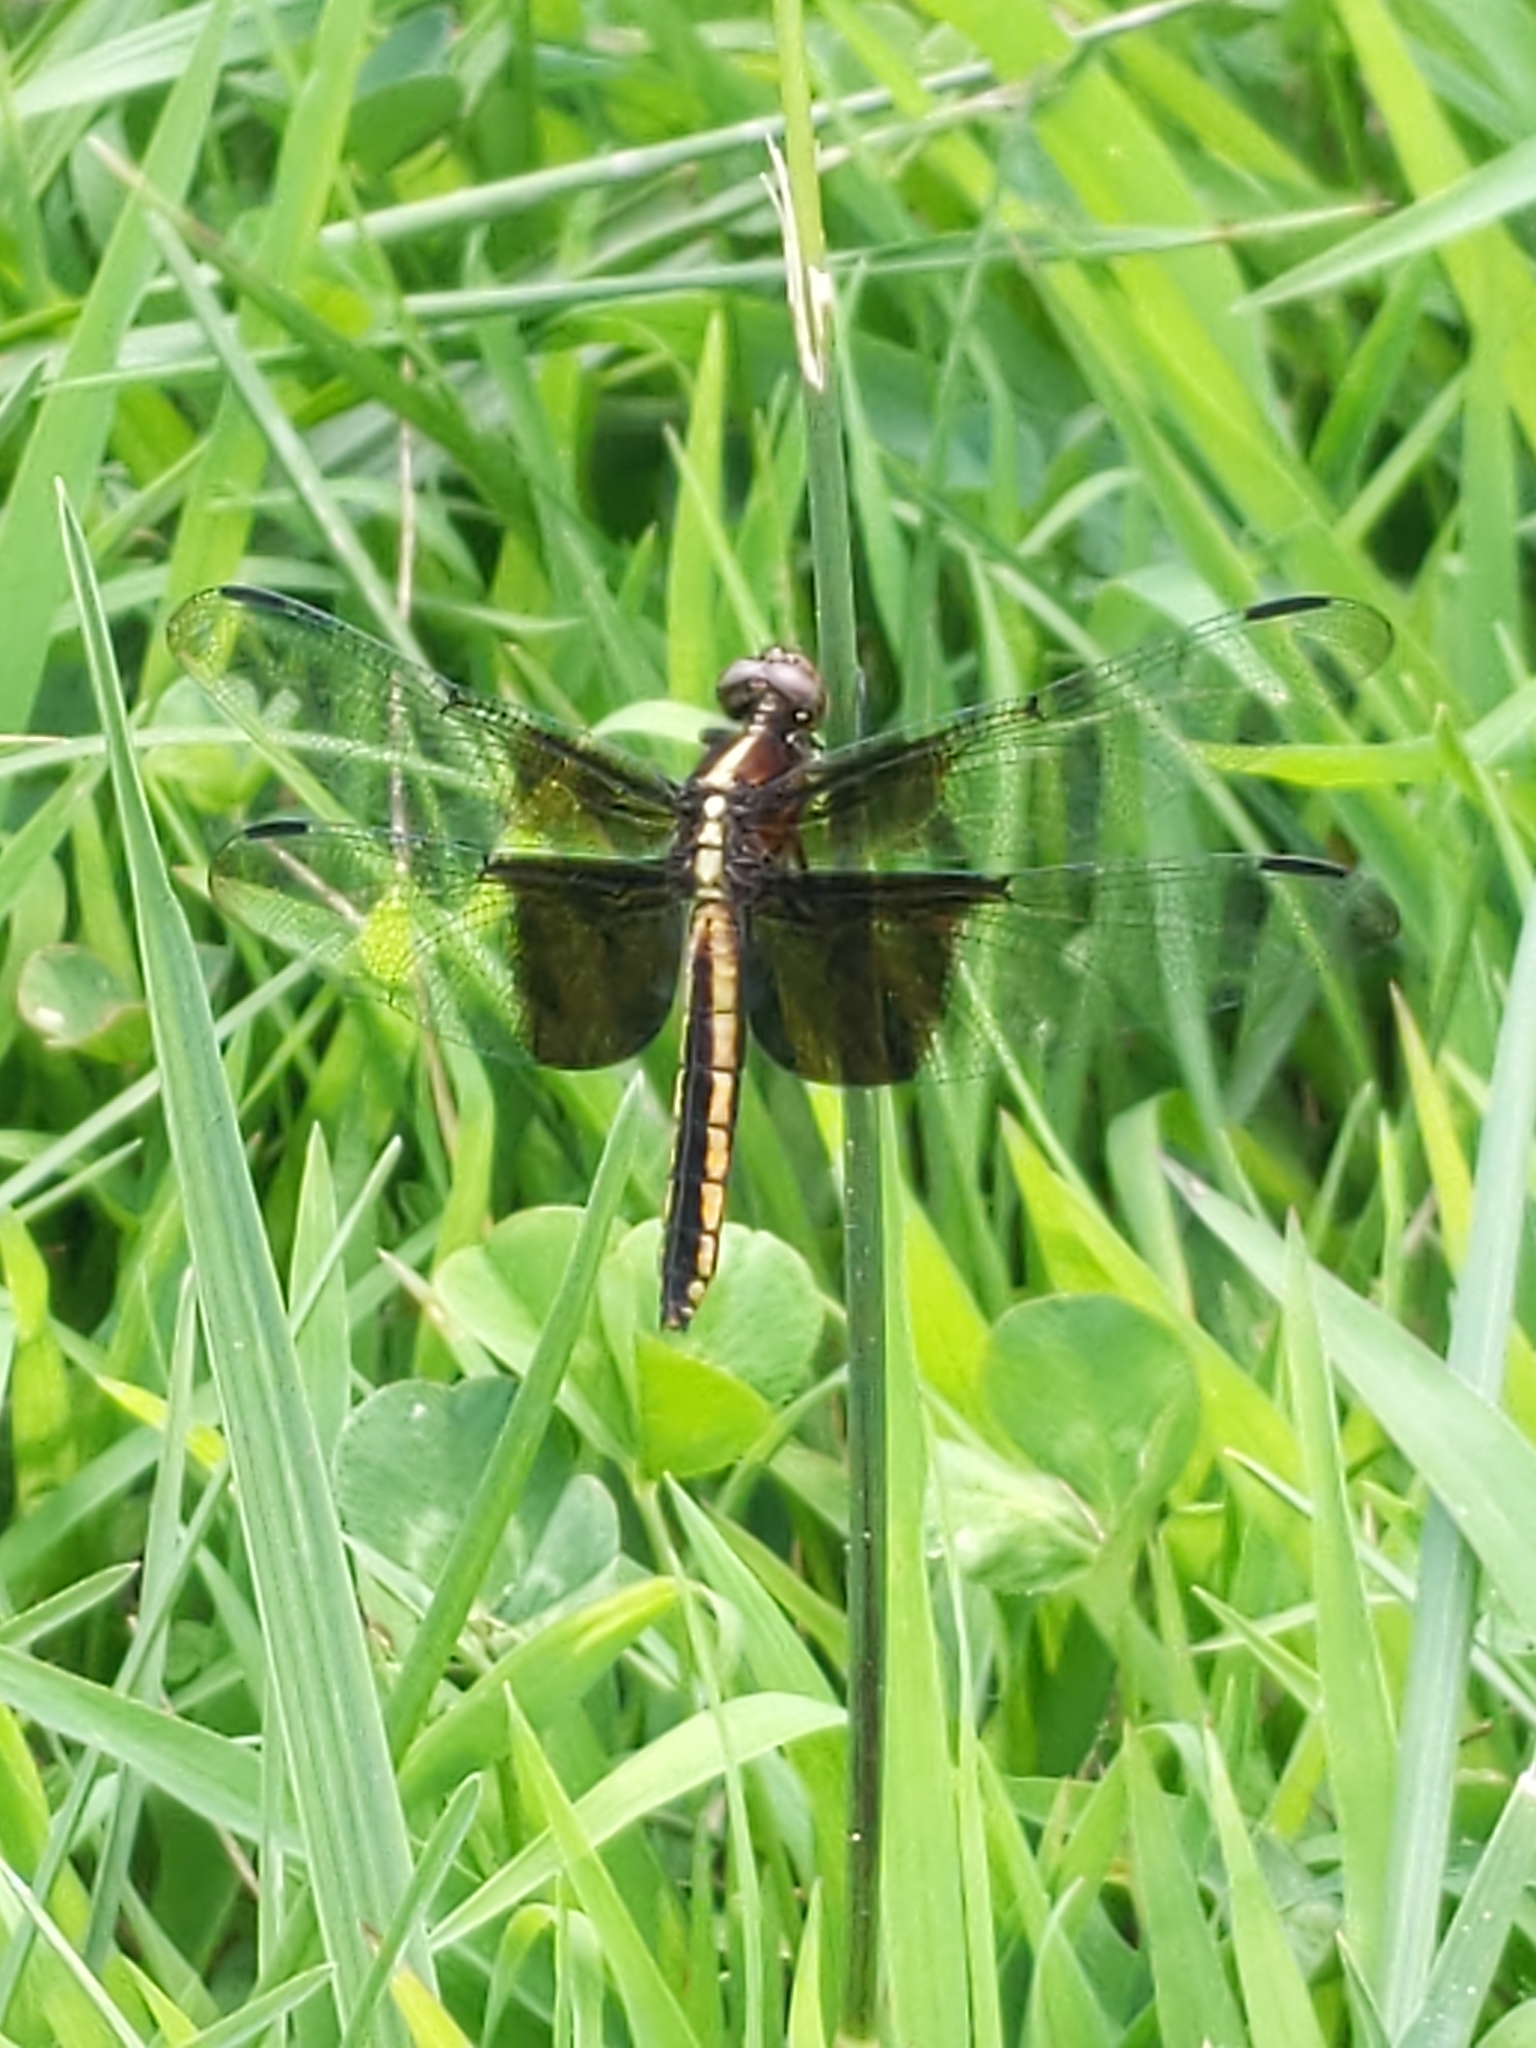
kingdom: Animalia
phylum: Arthropoda
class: Insecta
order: Odonata
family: Libellulidae
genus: Libellula
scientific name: Libellula luctuosa
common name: Widow skimmer
